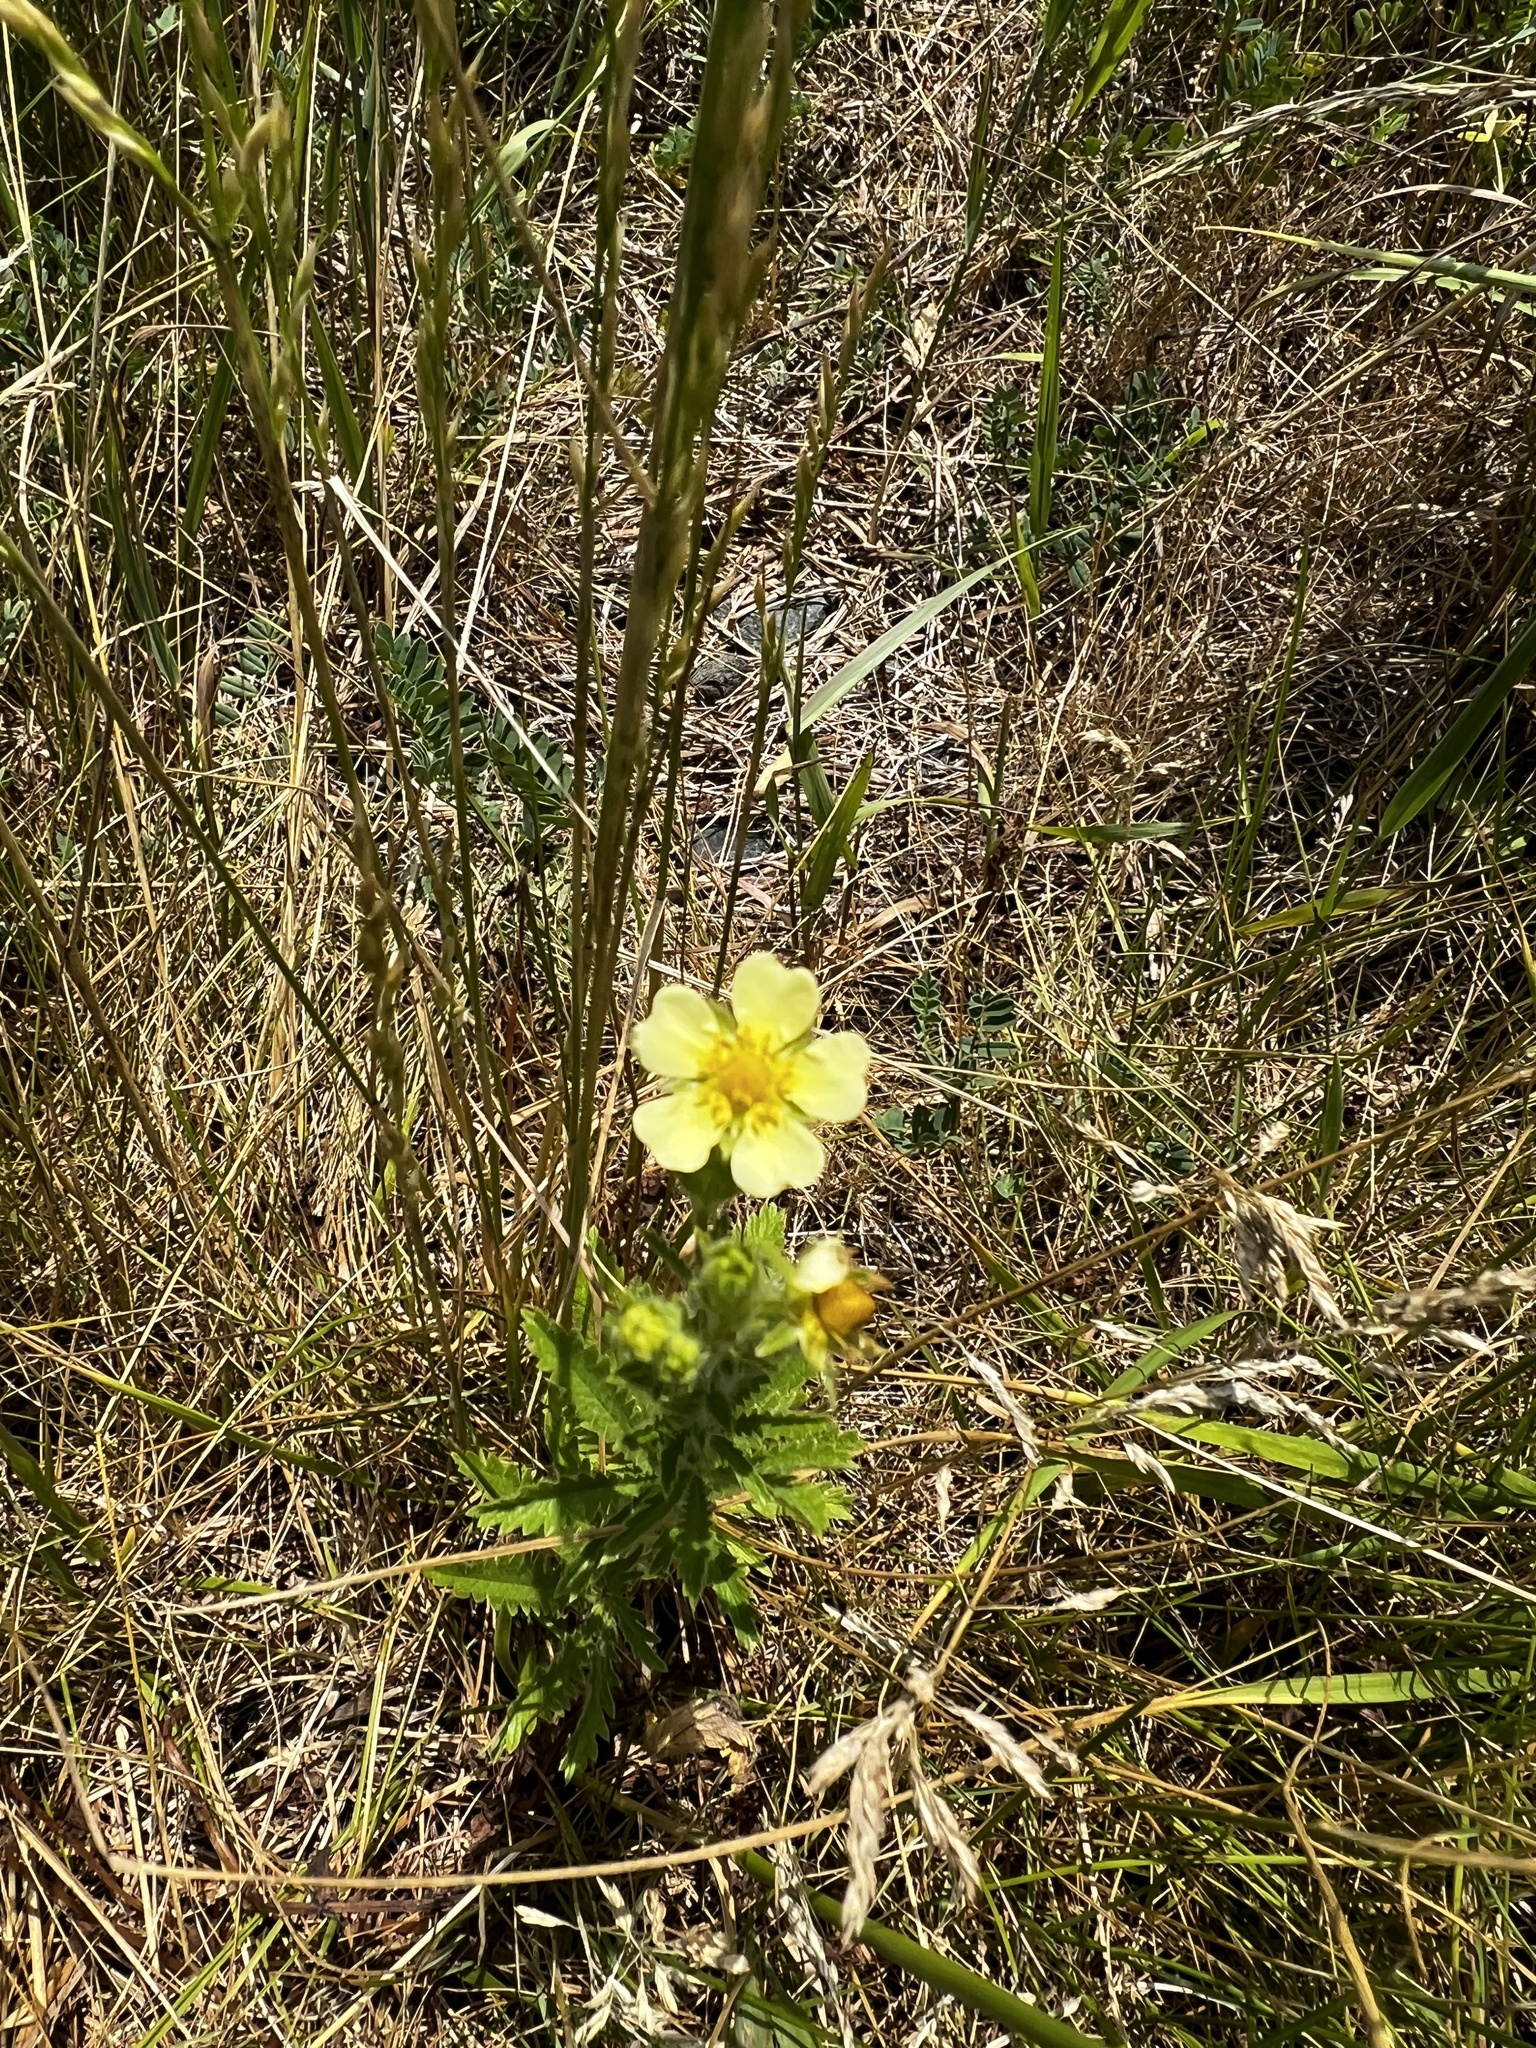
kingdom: Plantae
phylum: Tracheophyta
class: Magnoliopsida
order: Rosales
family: Rosaceae
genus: Potentilla
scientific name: Potentilla recta
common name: Sulphur cinquefoil
